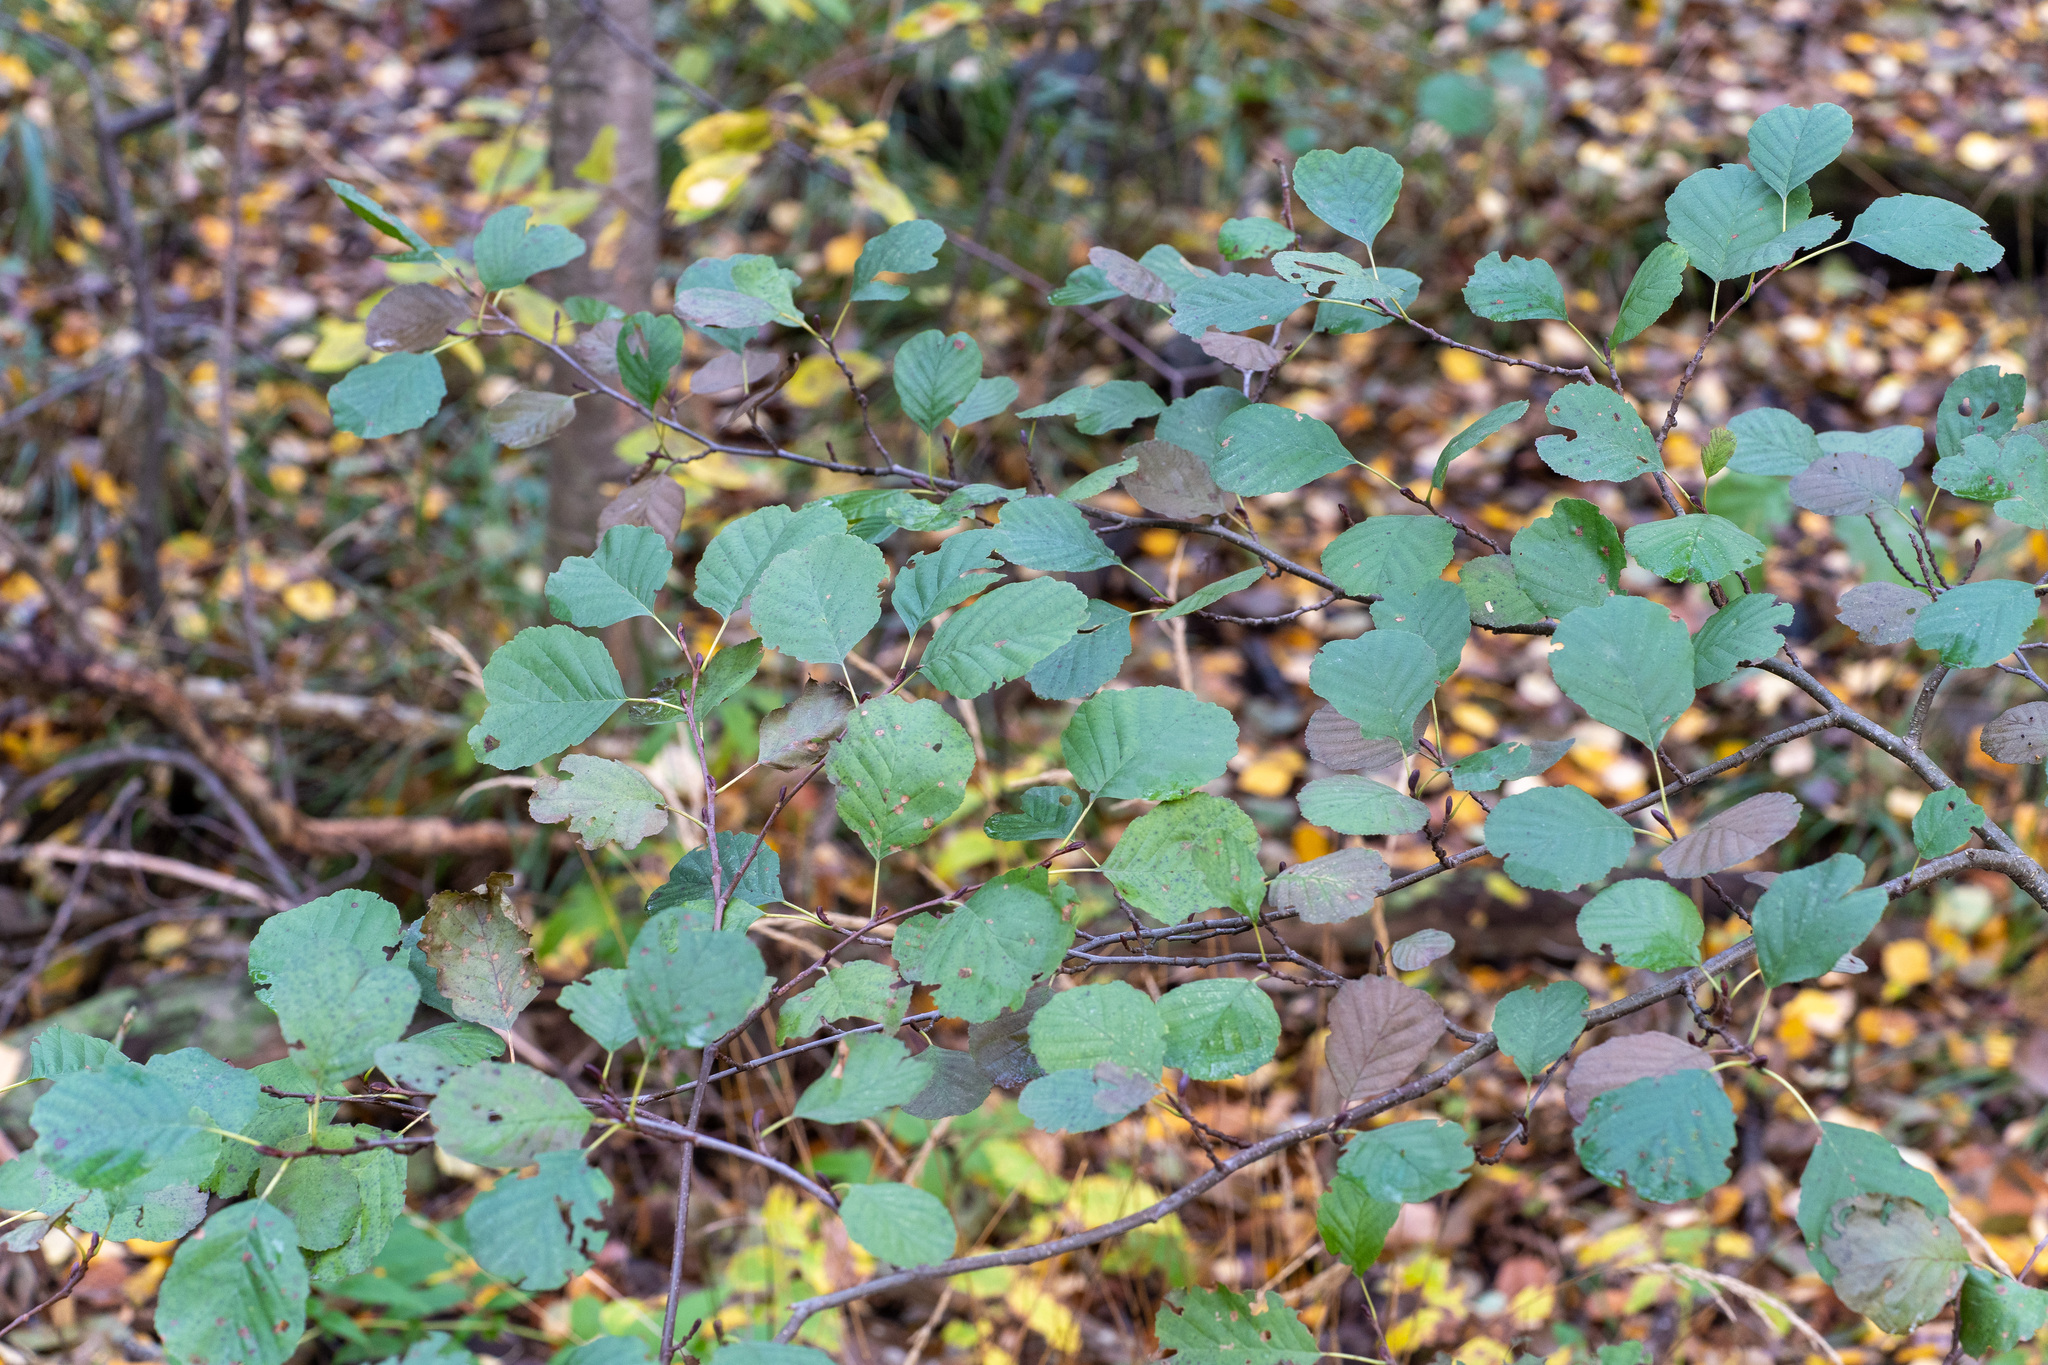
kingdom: Plantae
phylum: Tracheophyta
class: Magnoliopsida
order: Fagales
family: Betulaceae
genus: Alnus
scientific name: Alnus glutinosa
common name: Black alder
